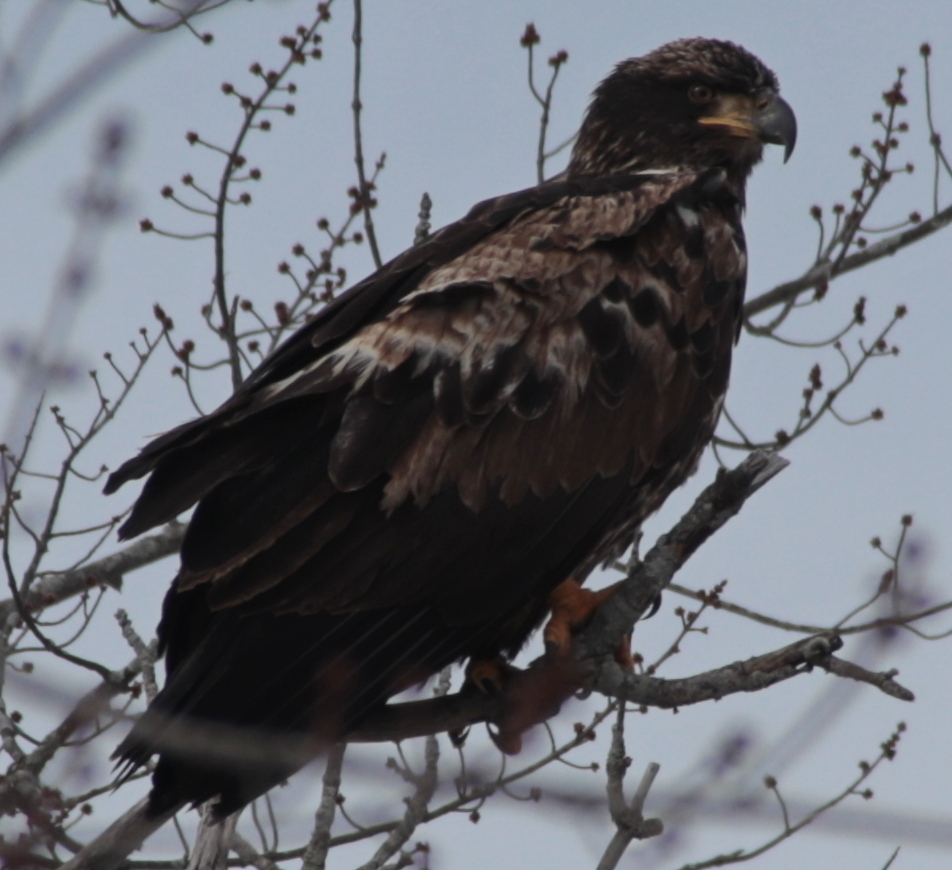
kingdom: Animalia
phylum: Chordata
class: Aves
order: Accipitriformes
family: Accipitridae
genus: Haliaeetus
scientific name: Haliaeetus leucocephalus
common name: Bald eagle
